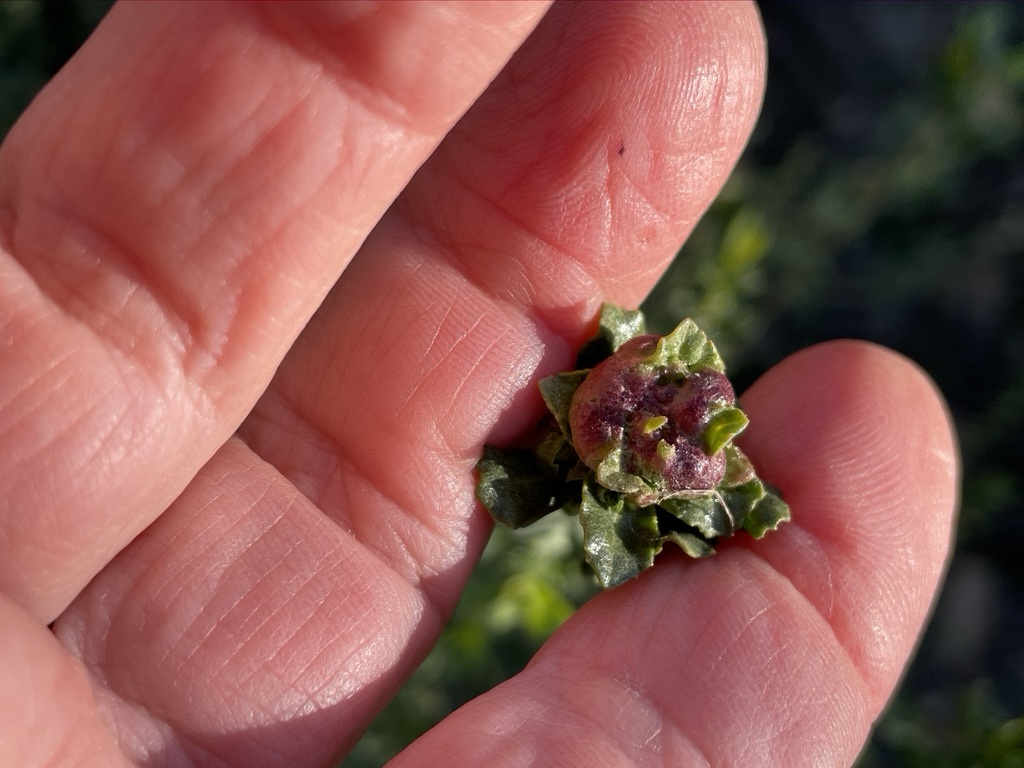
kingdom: Animalia
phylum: Arthropoda
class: Insecta
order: Diptera
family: Cecidomyiidae
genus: Rhopalomyia
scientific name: Rhopalomyia californica
